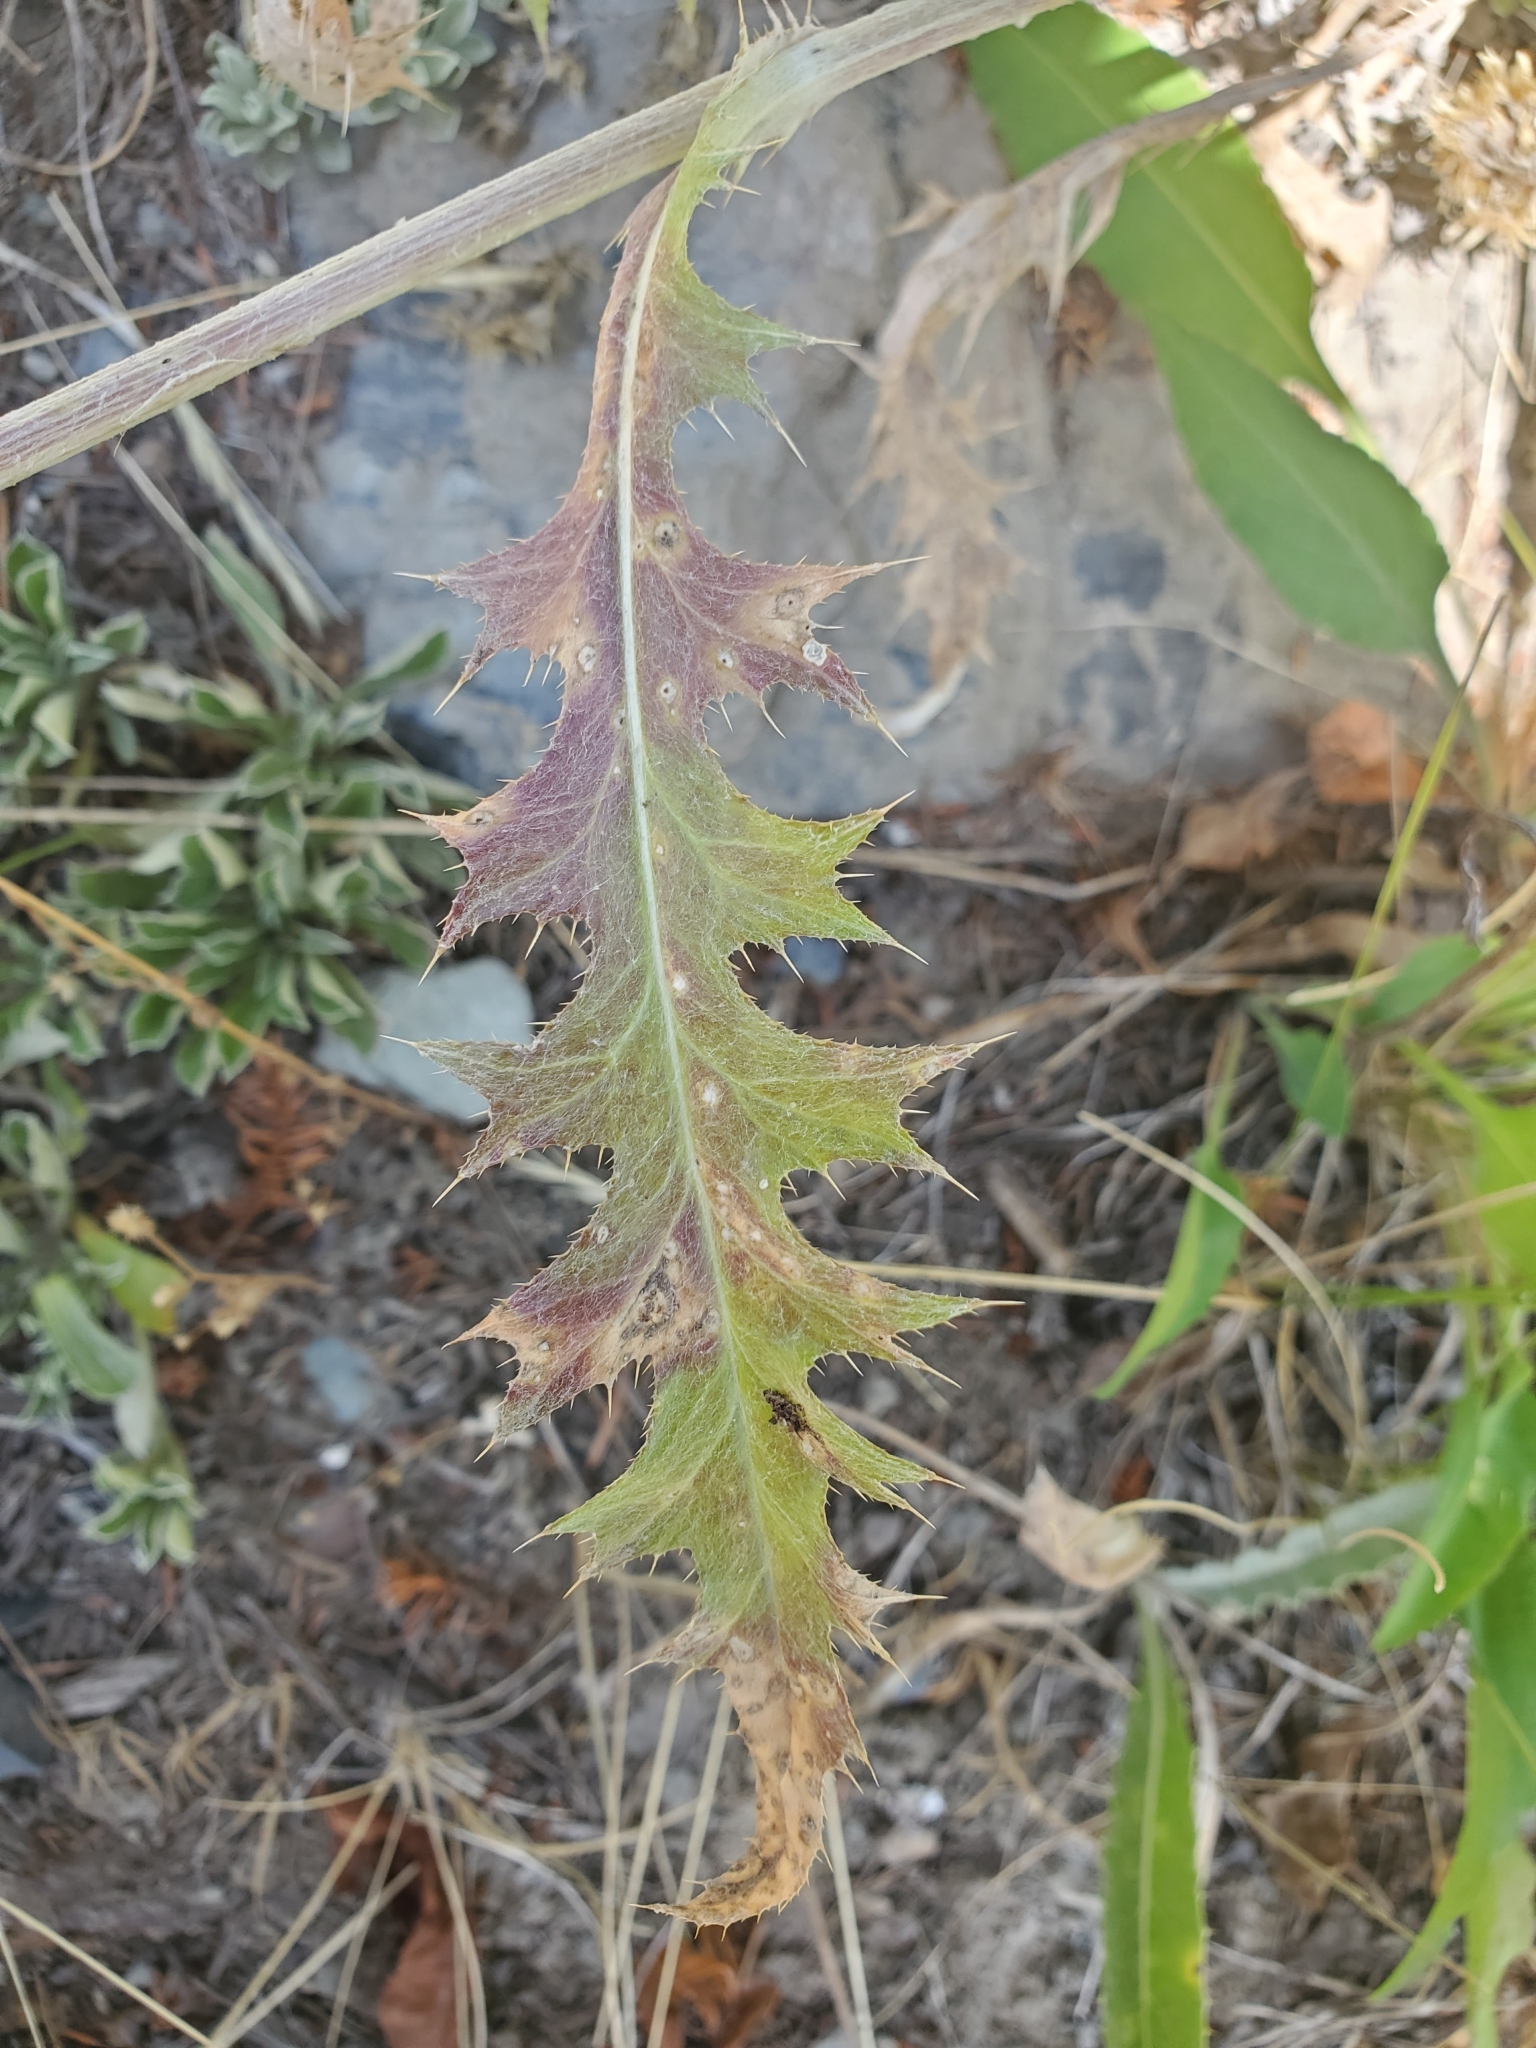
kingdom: Plantae
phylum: Tracheophyta
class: Magnoliopsida
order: Asterales
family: Asteraceae
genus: Cirsium
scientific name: Cirsium undulatum
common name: Pasture thistle
